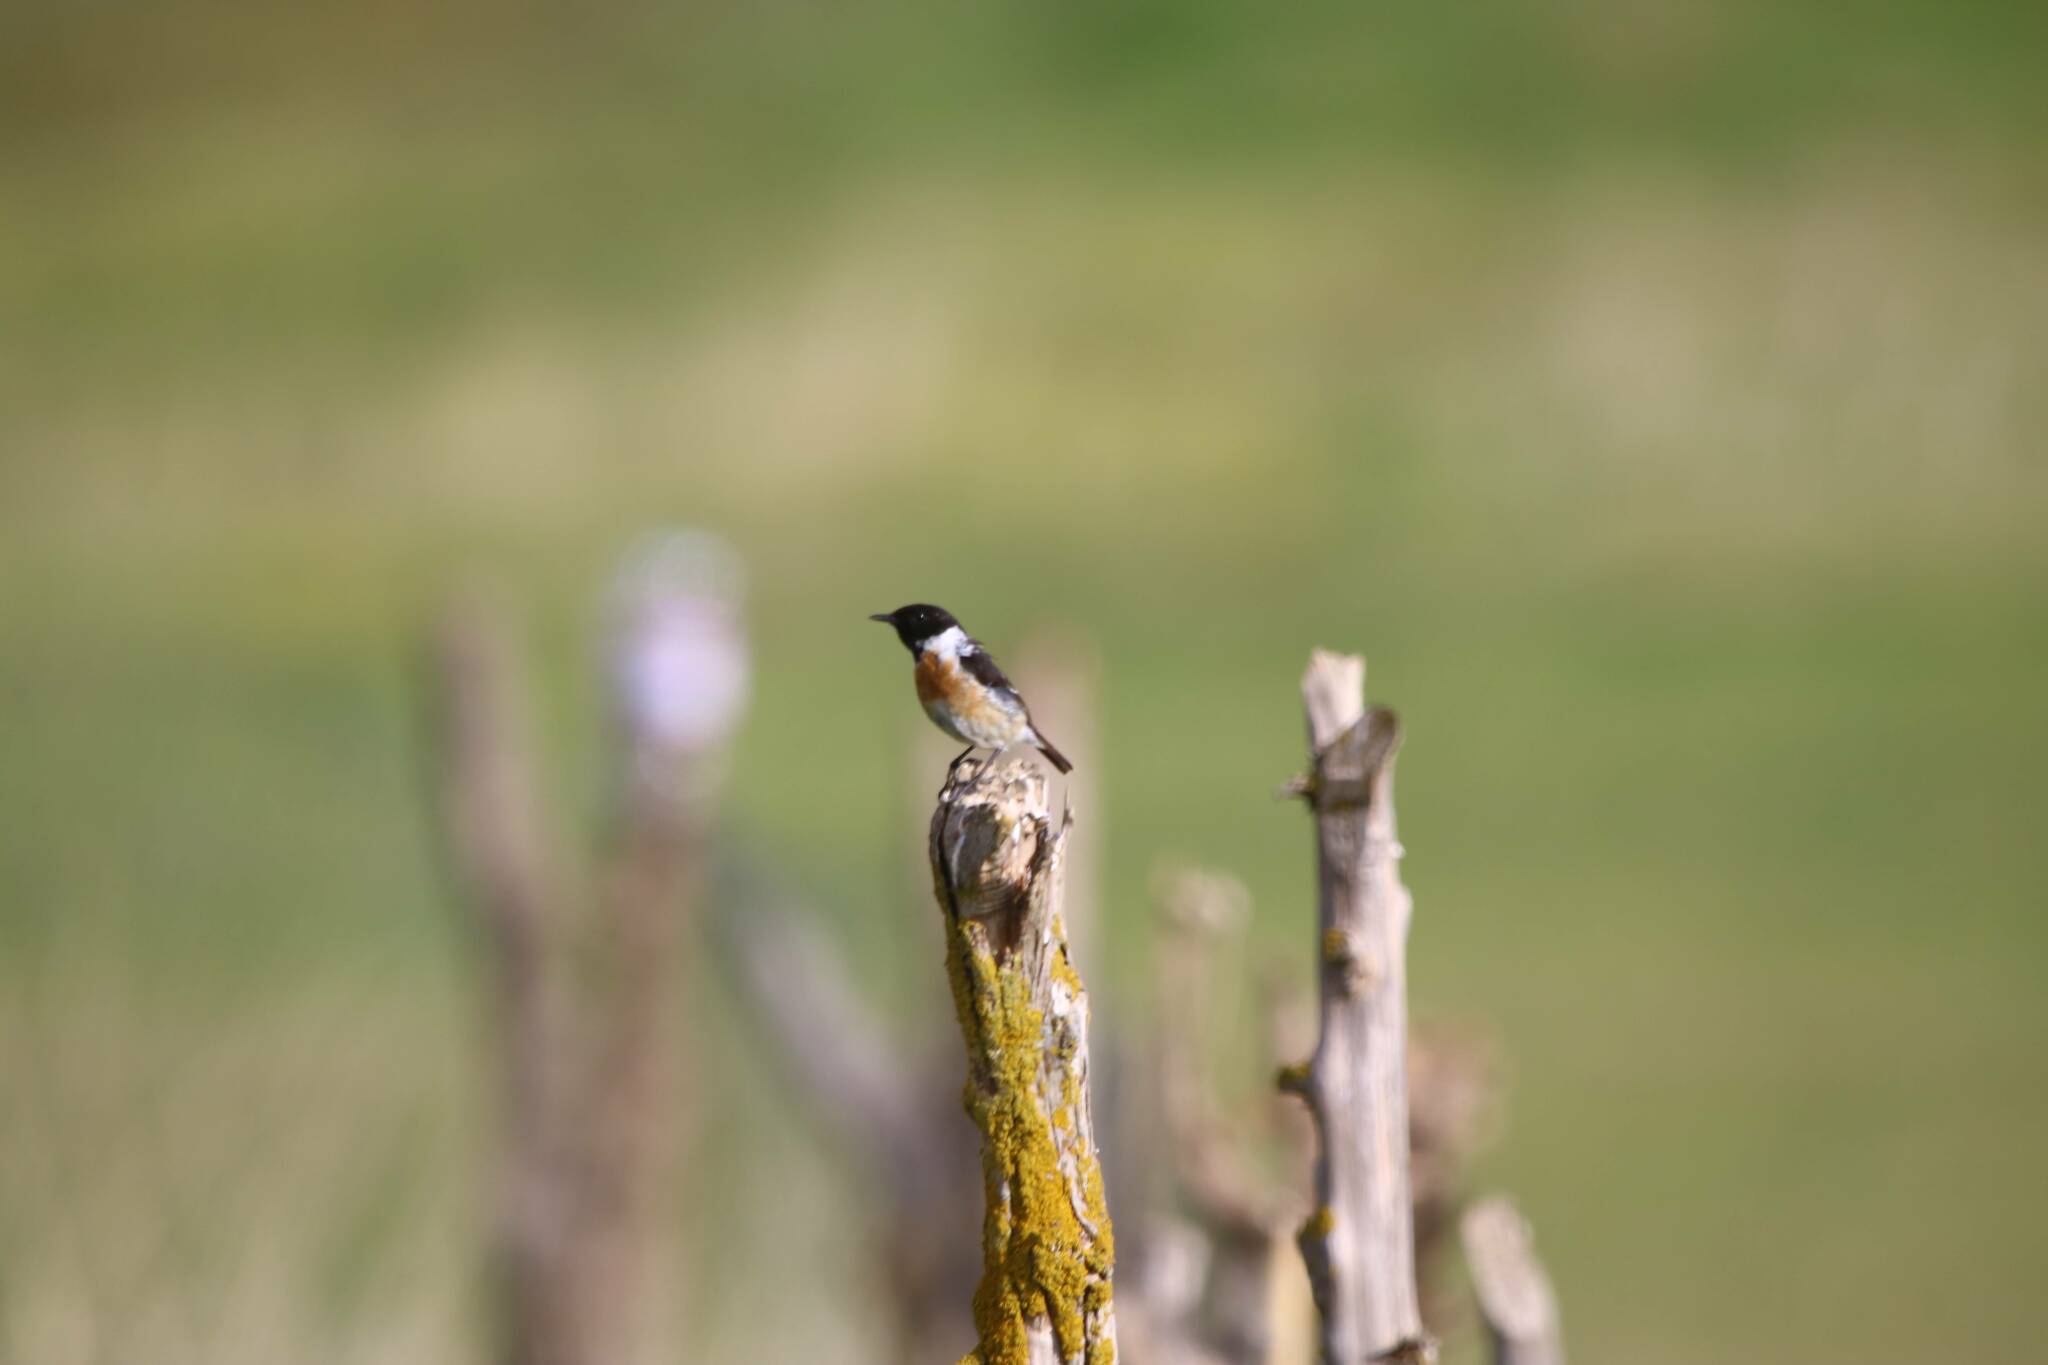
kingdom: Animalia
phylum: Chordata
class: Aves
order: Passeriformes
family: Muscicapidae
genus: Saxicola
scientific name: Saxicola rubicola
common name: European stonechat
